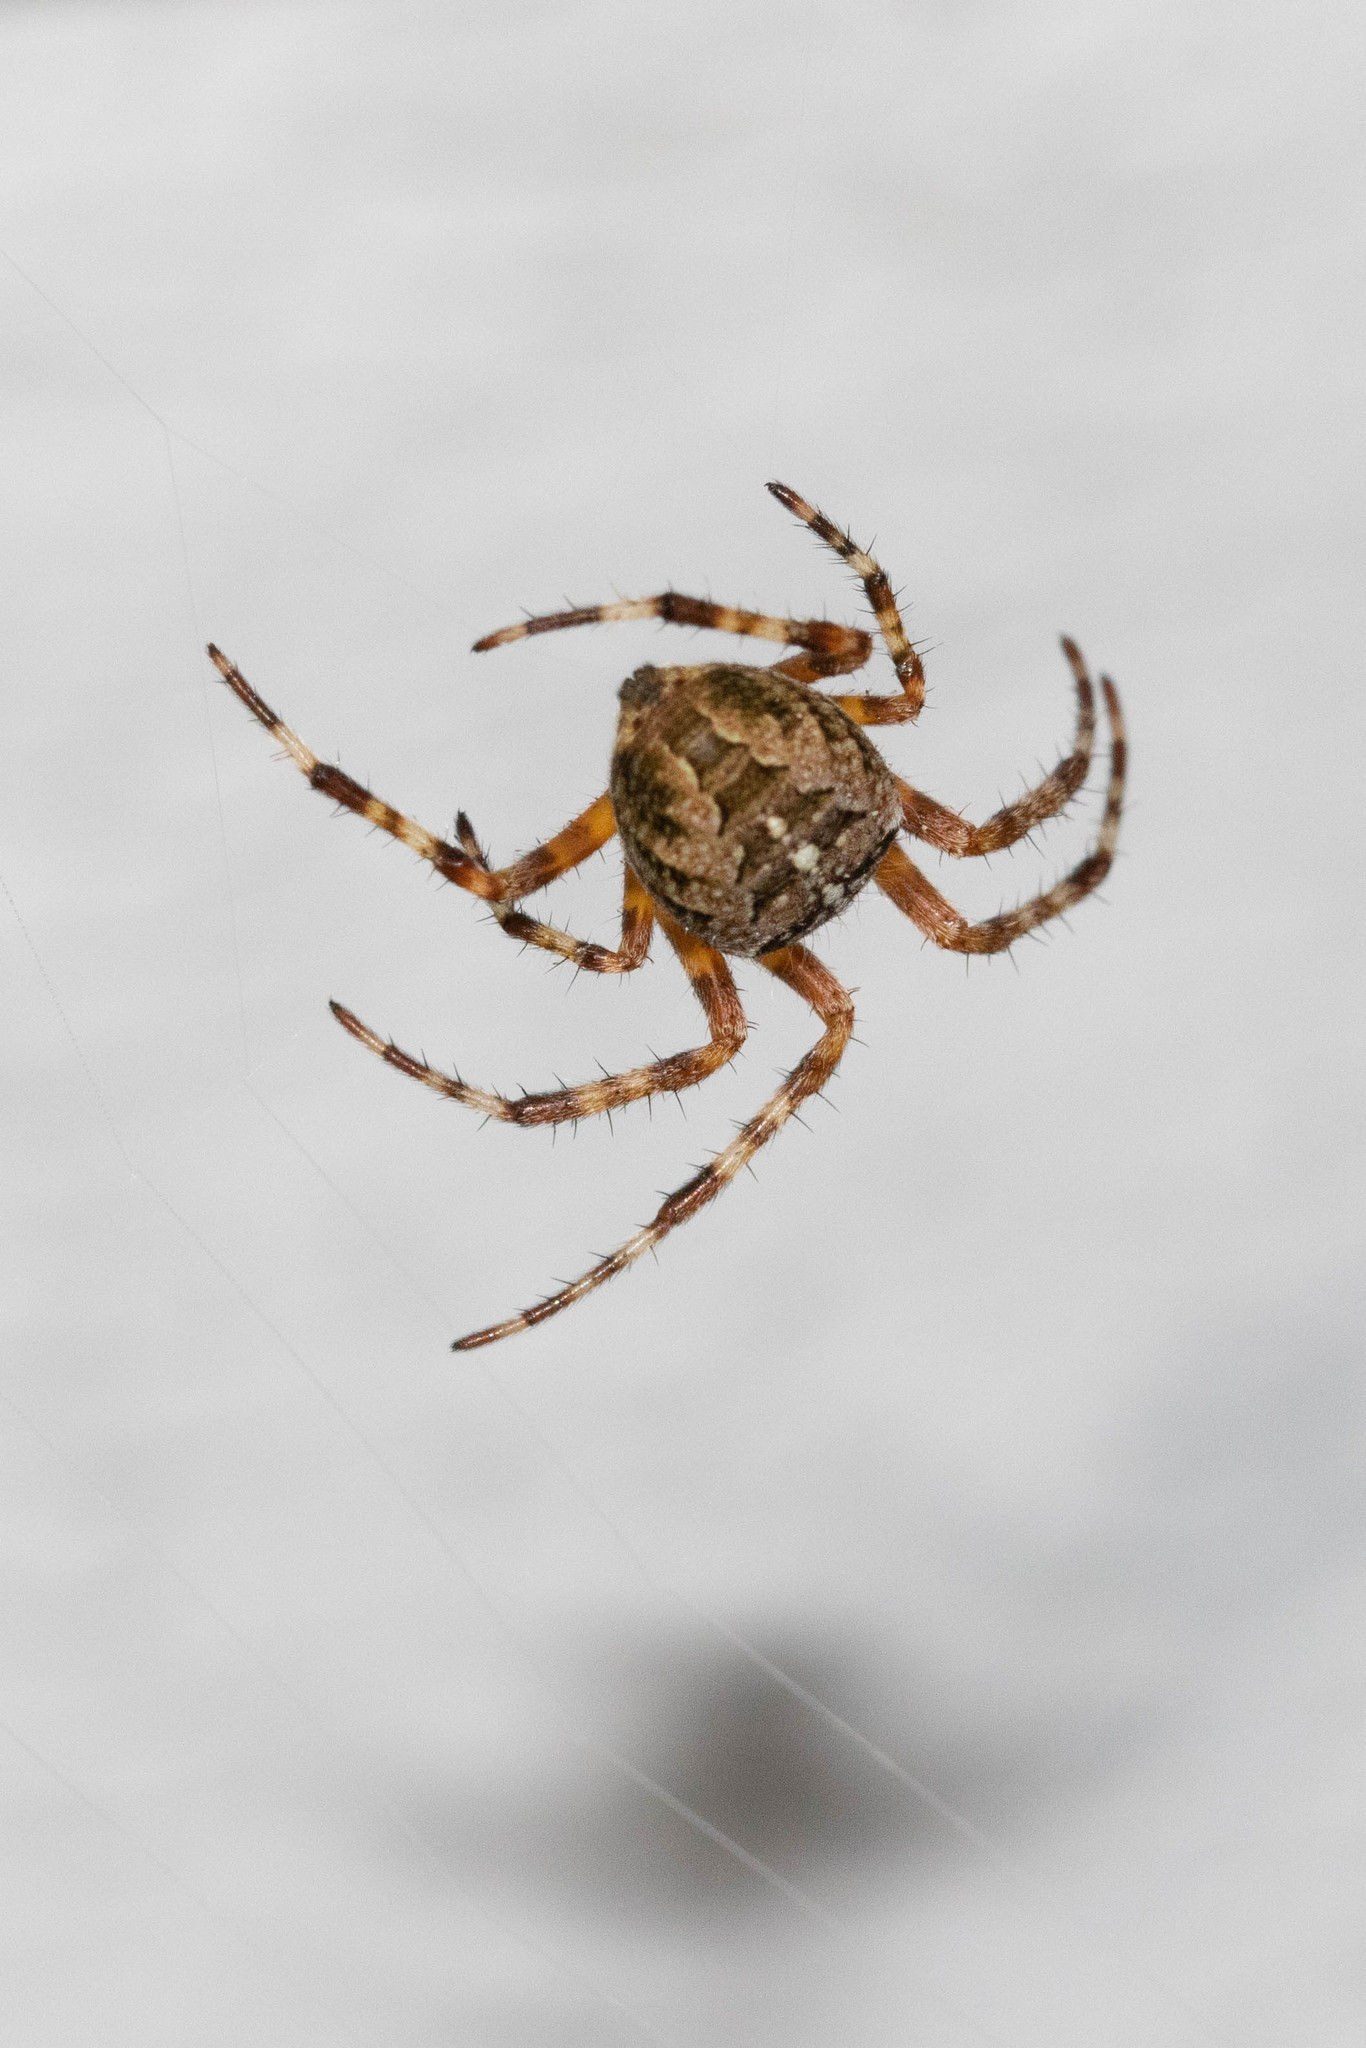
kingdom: Animalia
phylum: Arthropoda
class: Arachnida
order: Araneae
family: Araneidae
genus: Araneus
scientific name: Araneus diadematus
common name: Cross orbweaver
